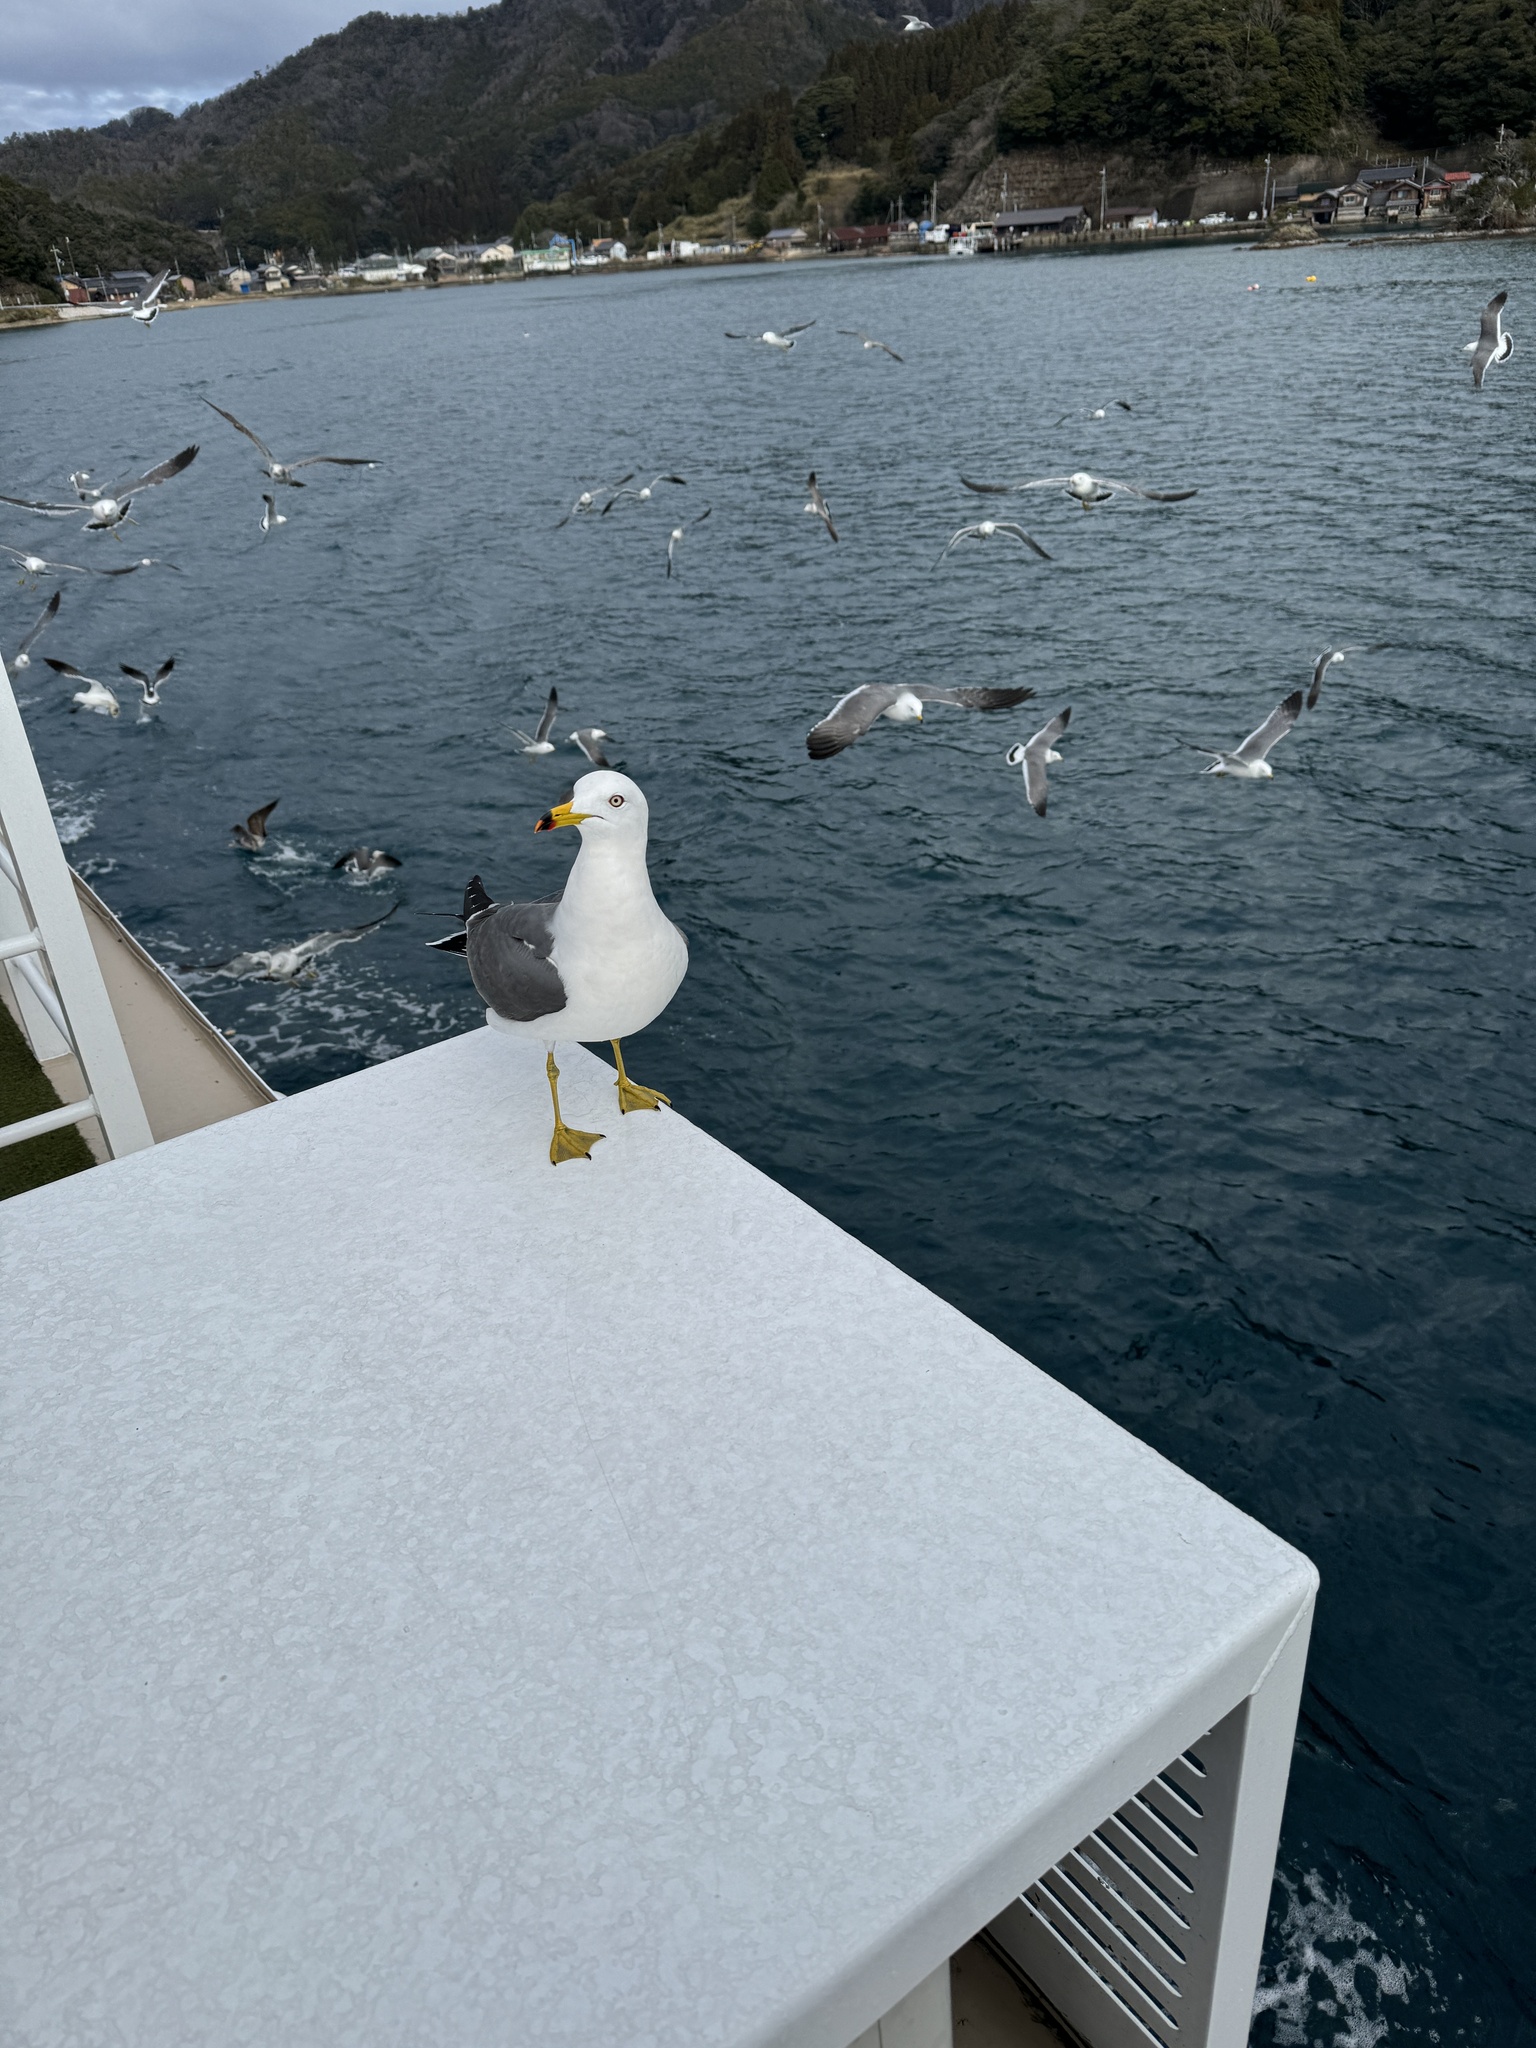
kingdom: Animalia
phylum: Chordata
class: Aves
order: Charadriiformes
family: Laridae
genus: Larus
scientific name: Larus crassirostris
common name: Black-tailed gull
